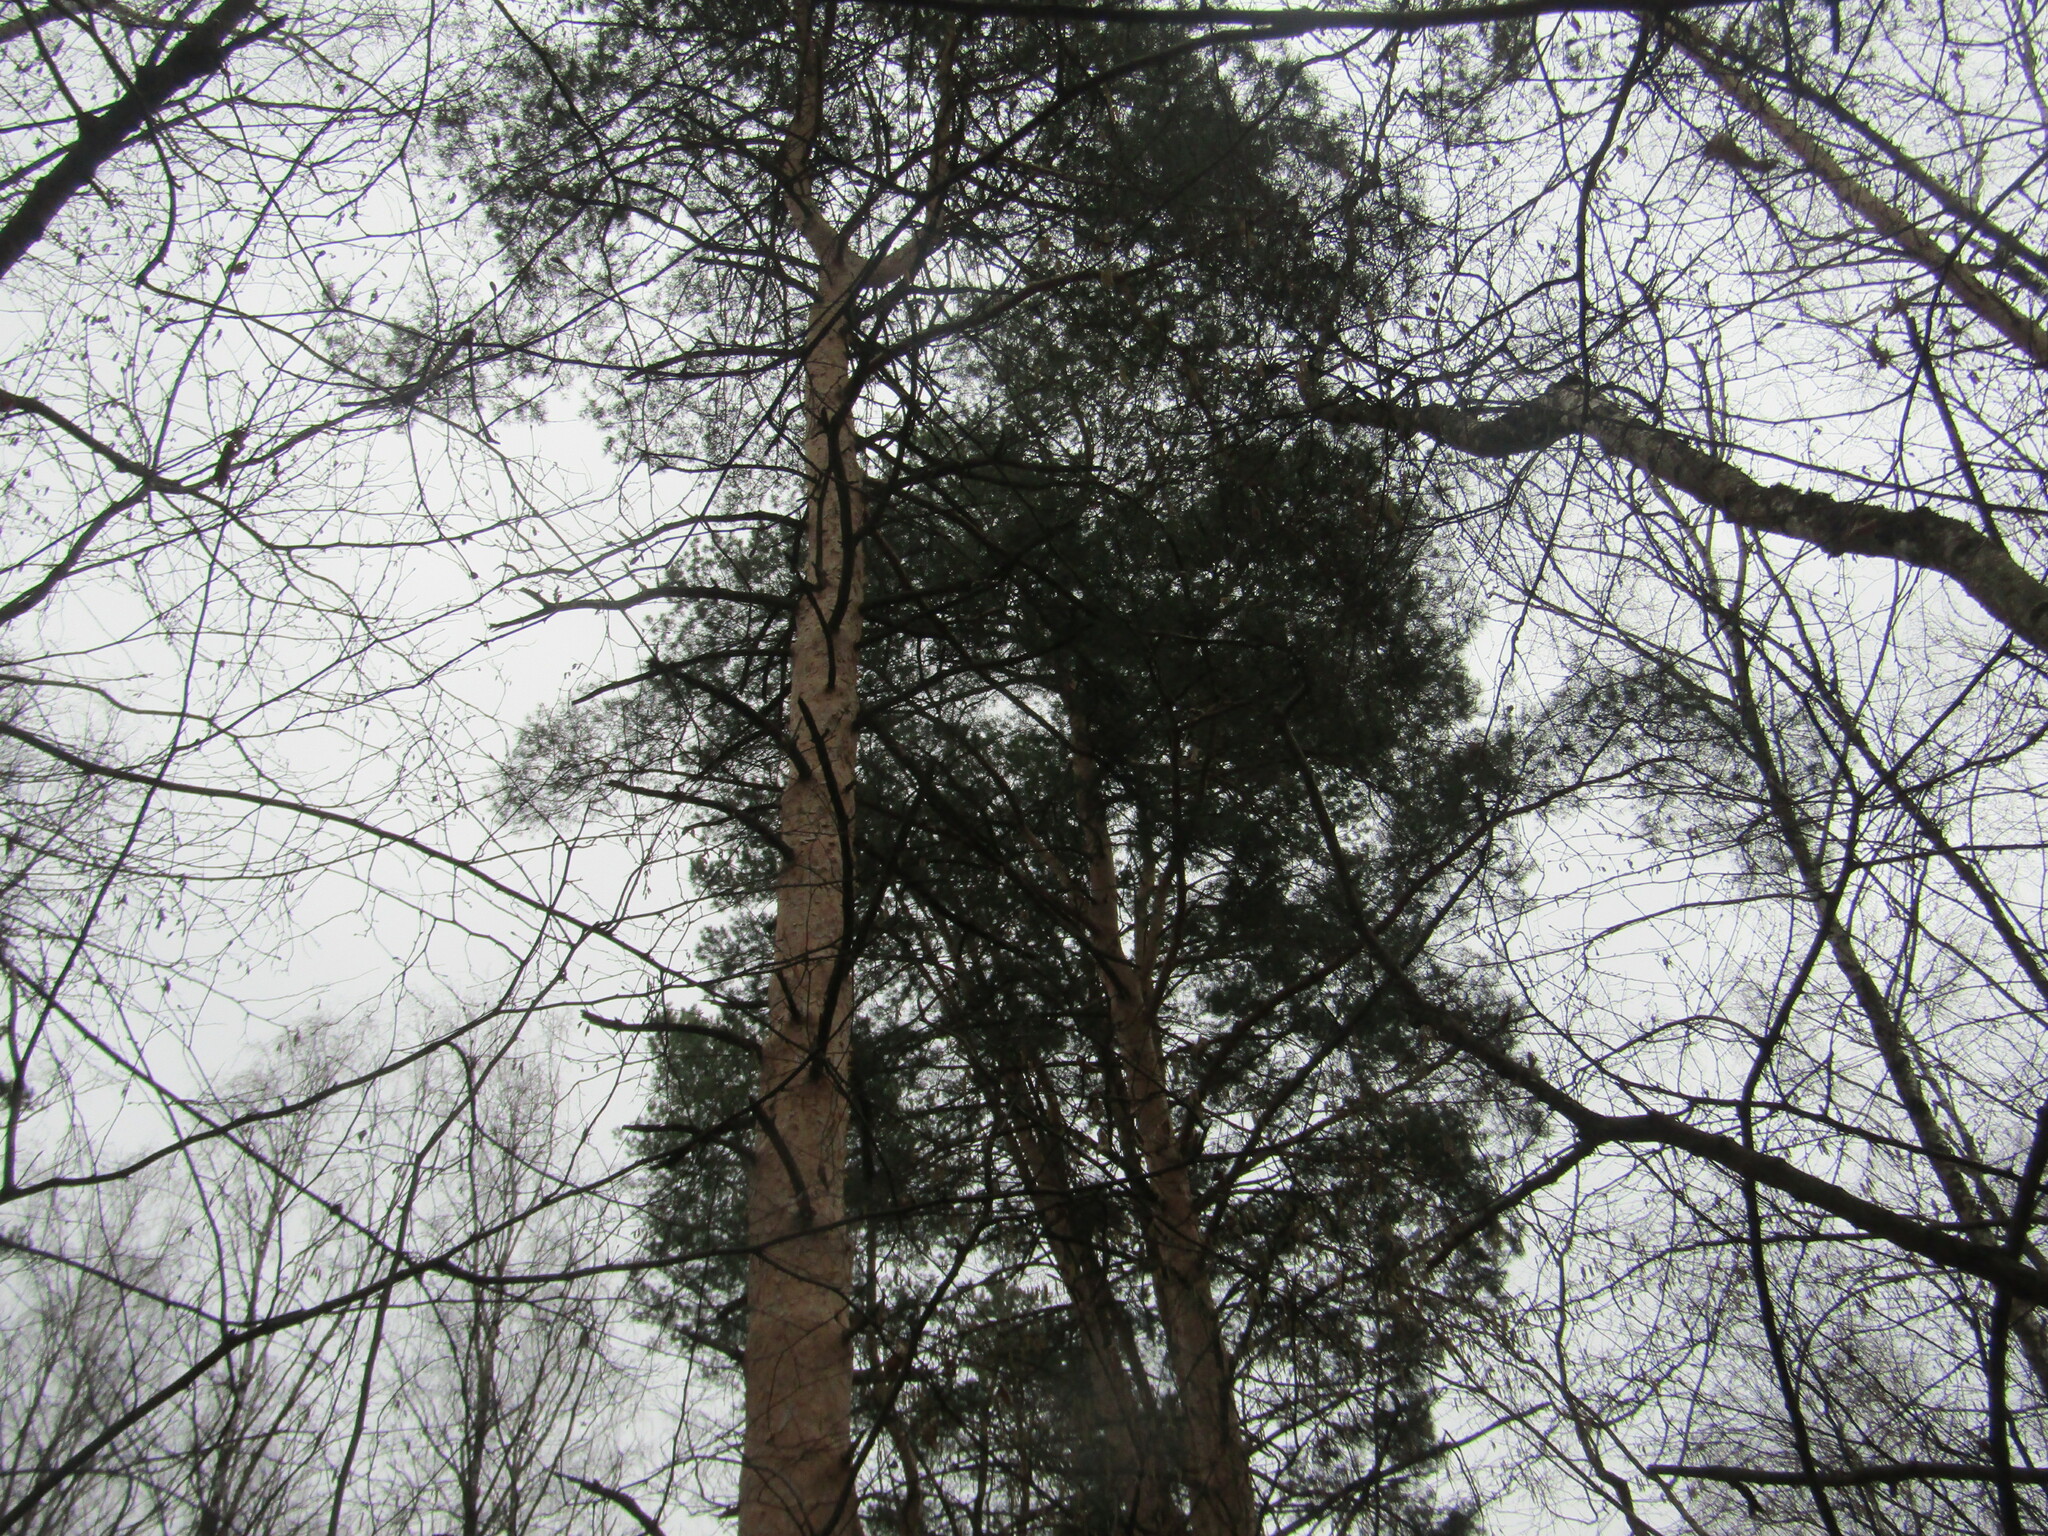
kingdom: Plantae
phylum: Tracheophyta
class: Pinopsida
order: Pinales
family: Pinaceae
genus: Pinus
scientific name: Pinus sylvestris
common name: Scots pine
